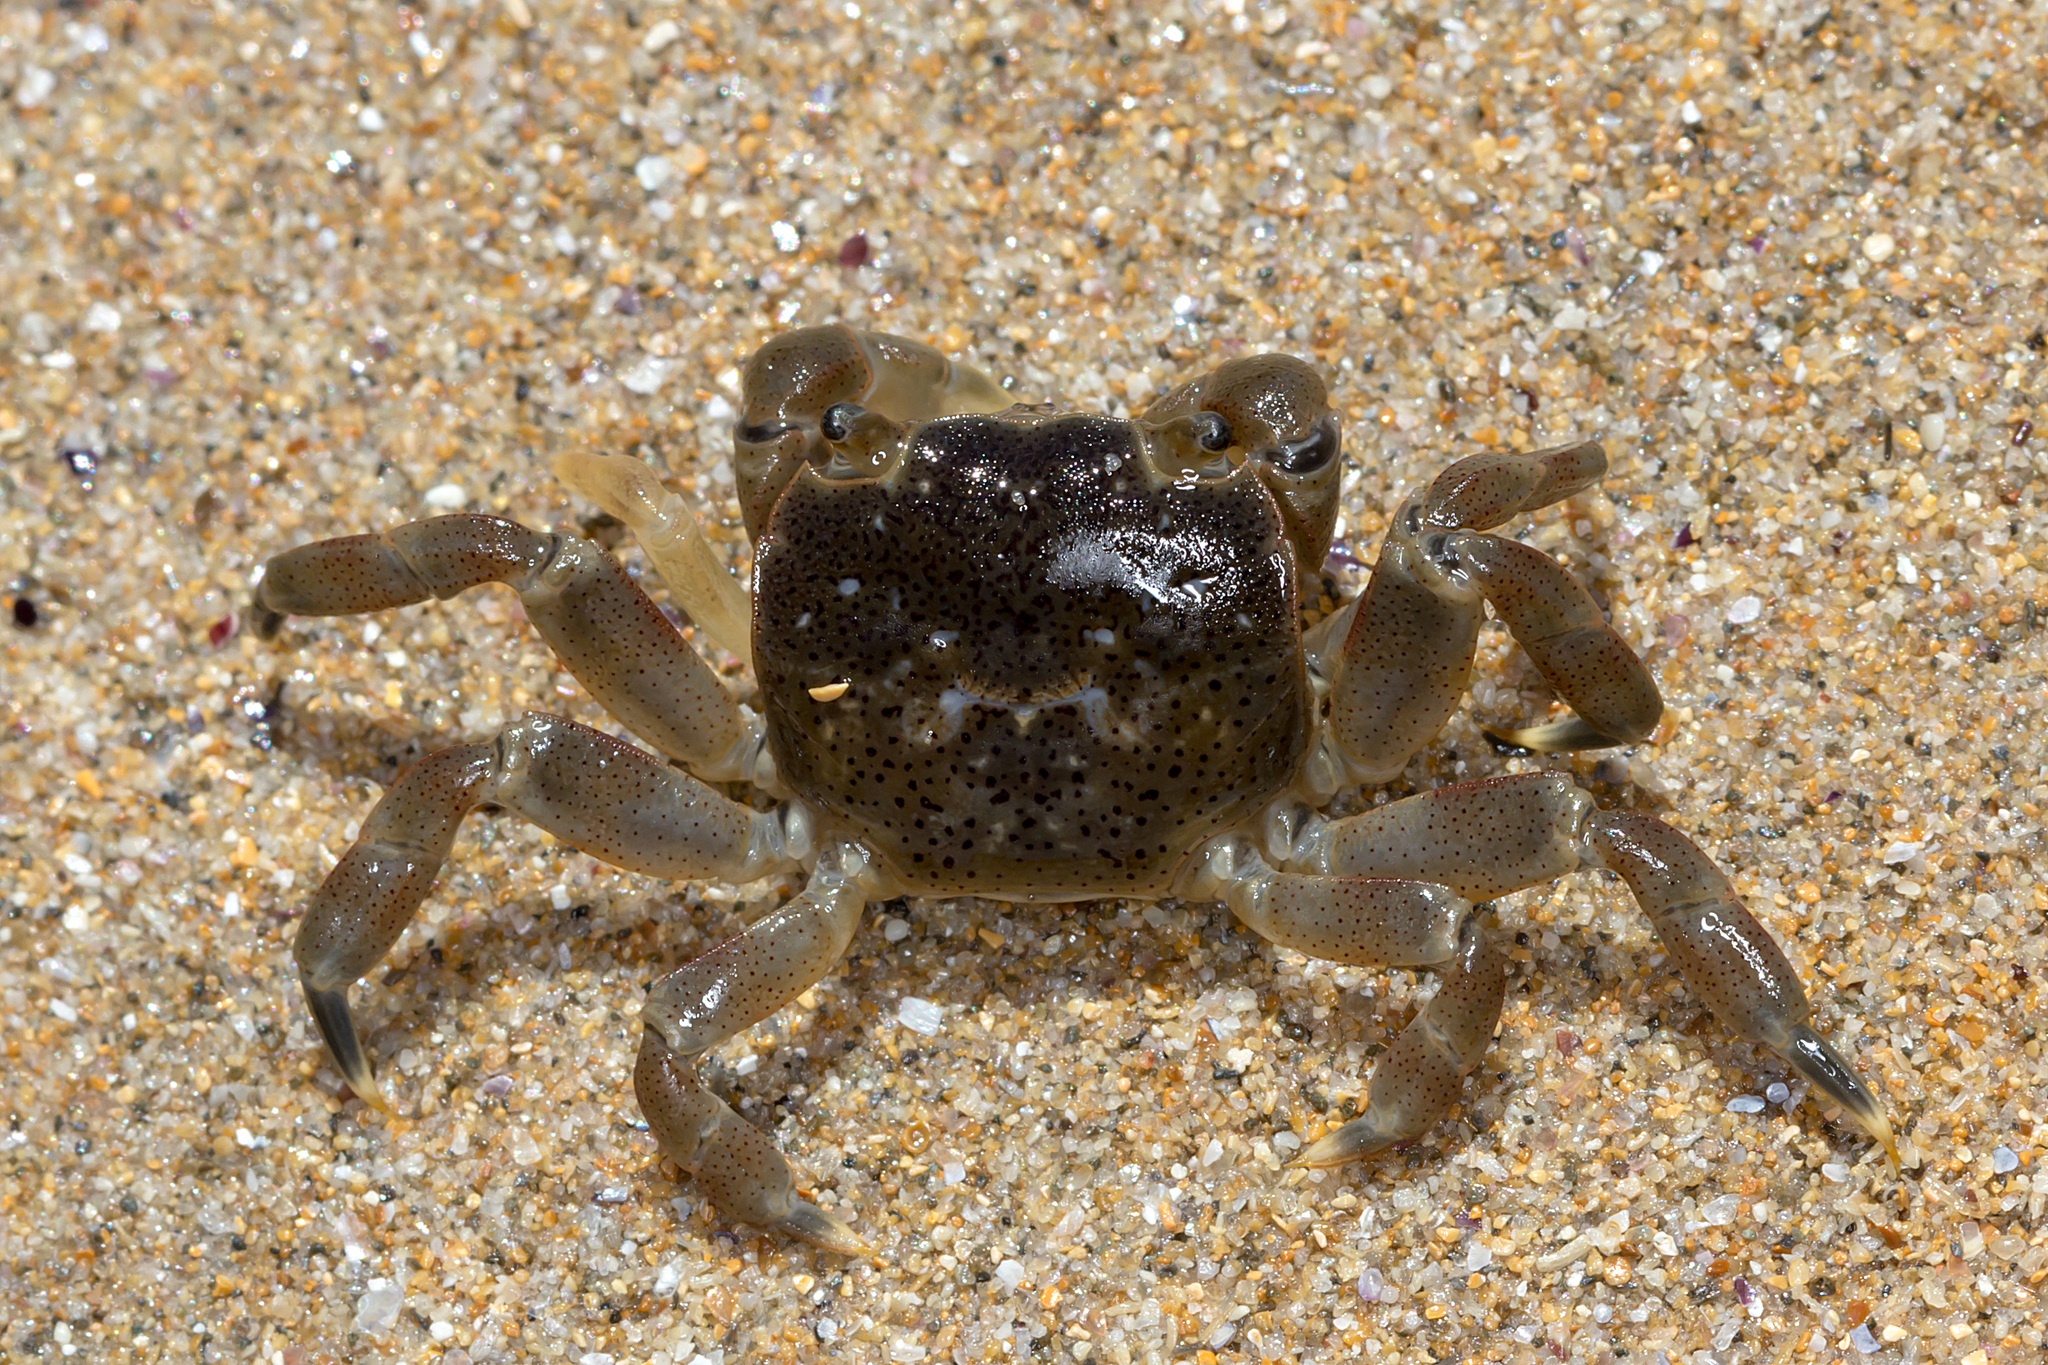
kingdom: Animalia
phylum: Arthropoda
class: Malacostraca
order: Decapoda
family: Varunidae
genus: Paragrapsus
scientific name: Paragrapsus quadridentatus
